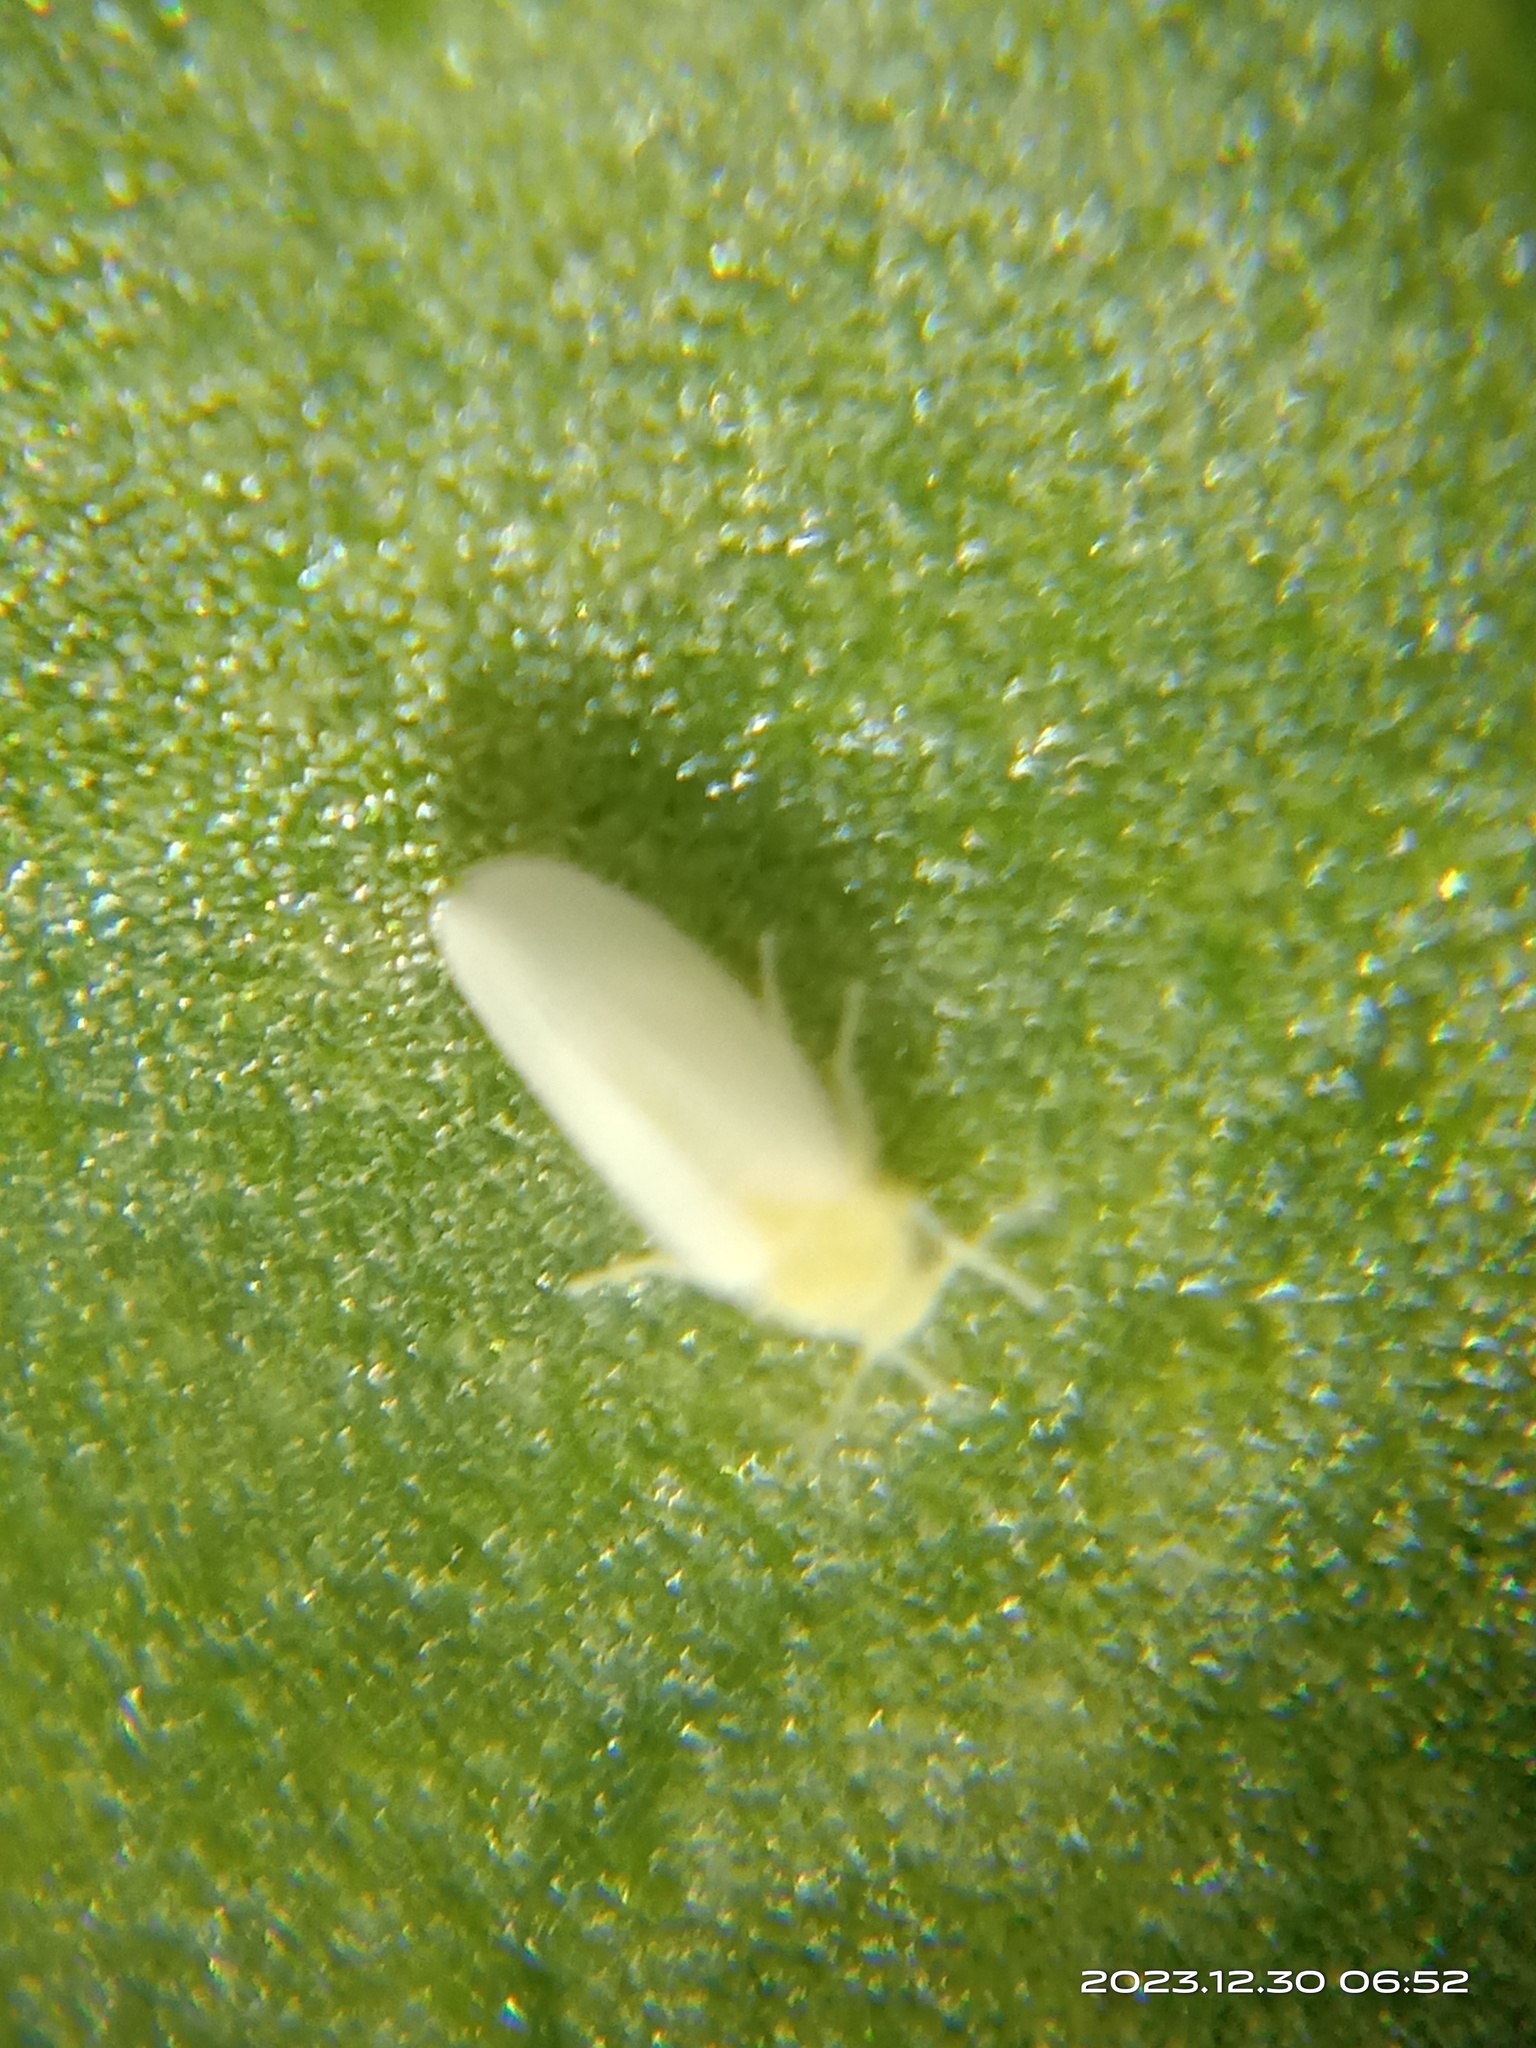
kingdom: Animalia
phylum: Arthropoda
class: Insecta
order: Hemiptera
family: Aleyrodidae
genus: Bemisia
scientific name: Bemisia tabaci
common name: Sweetpotato whitefly
